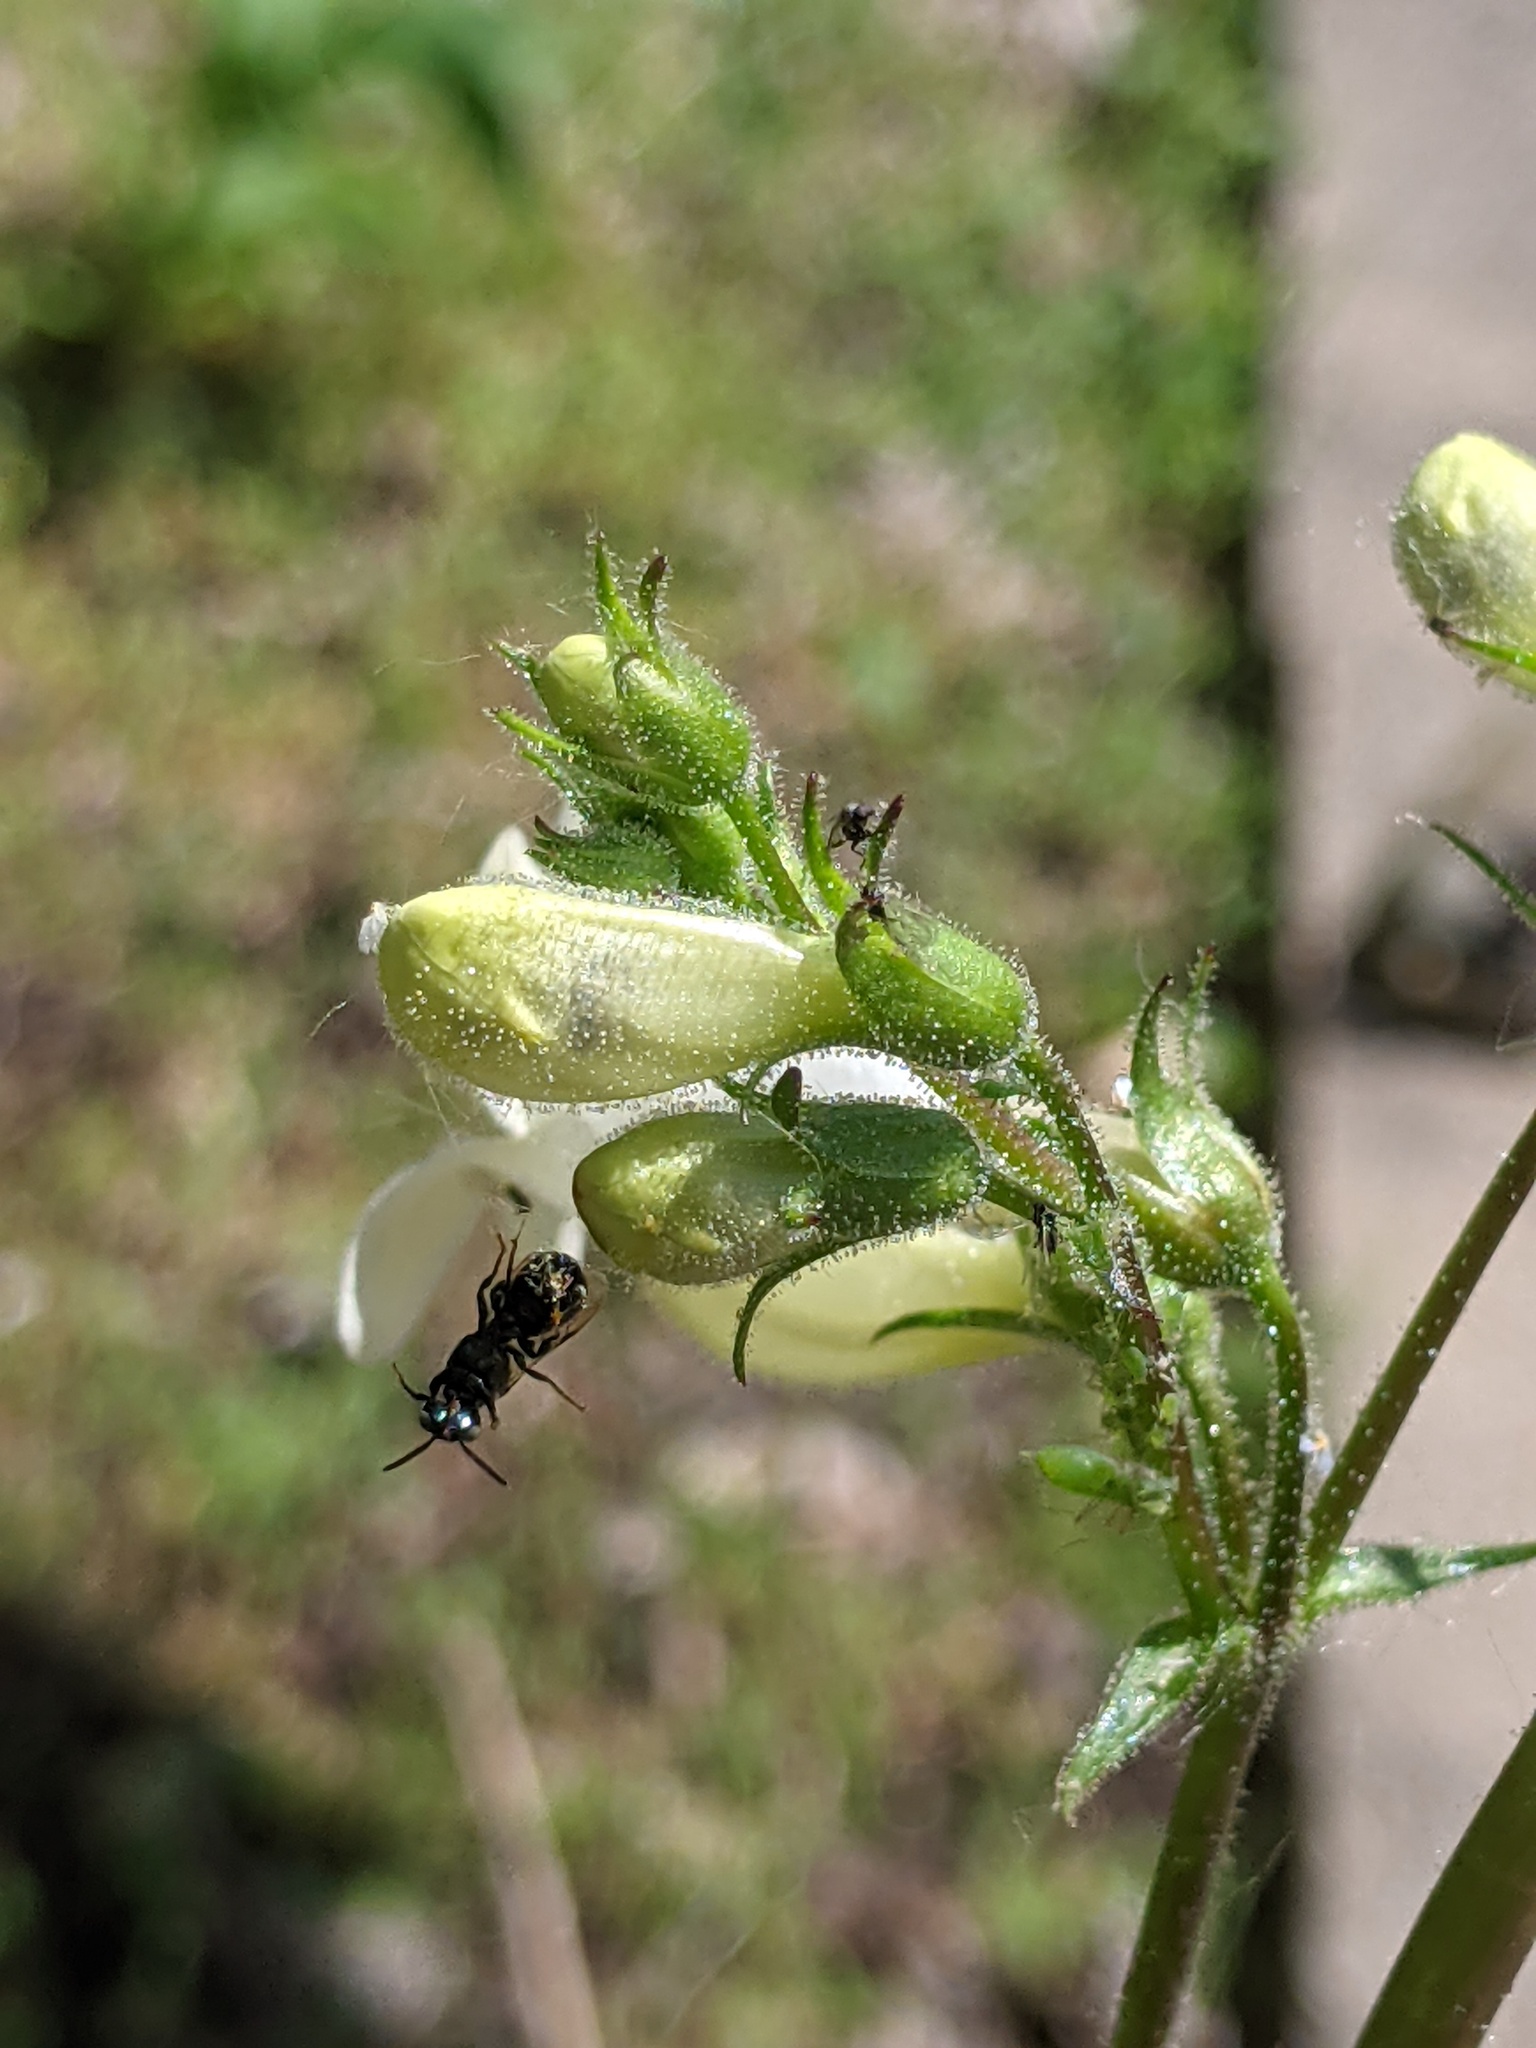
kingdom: Animalia
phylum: Arthropoda
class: Insecta
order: Hymenoptera
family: Apidae
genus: Ceratina
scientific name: Ceratina calcarata
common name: Spurred carpenter bee
